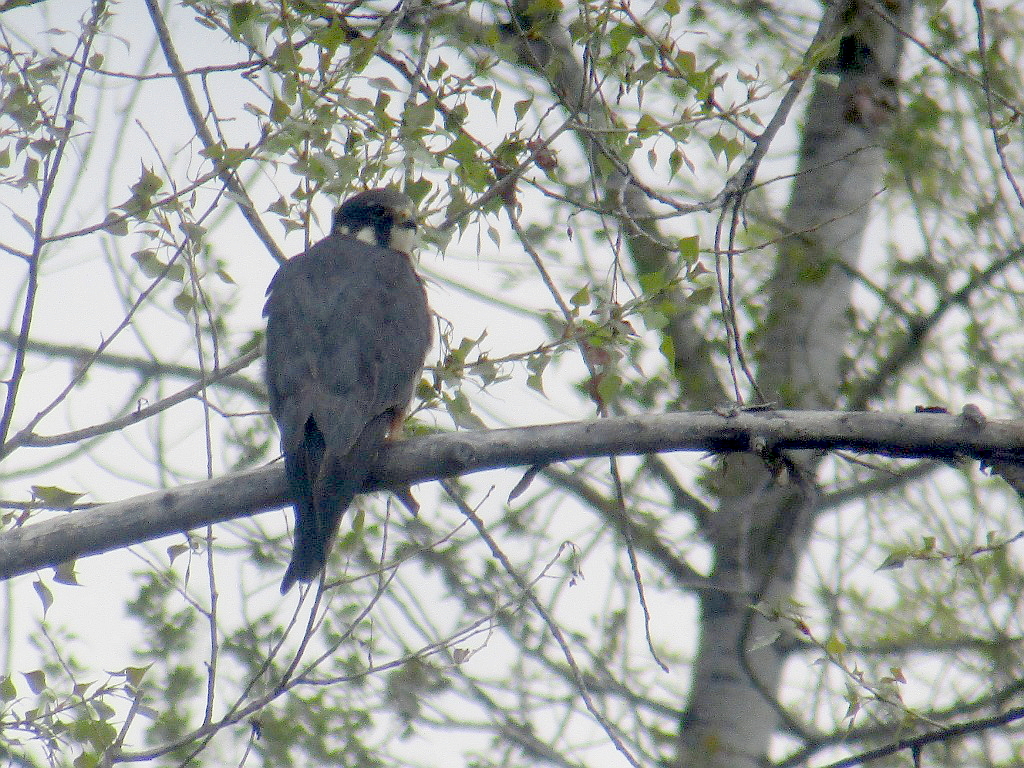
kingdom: Animalia
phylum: Chordata
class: Aves
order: Falconiformes
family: Falconidae
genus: Falco
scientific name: Falco subbuteo
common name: Eurasian hobby
